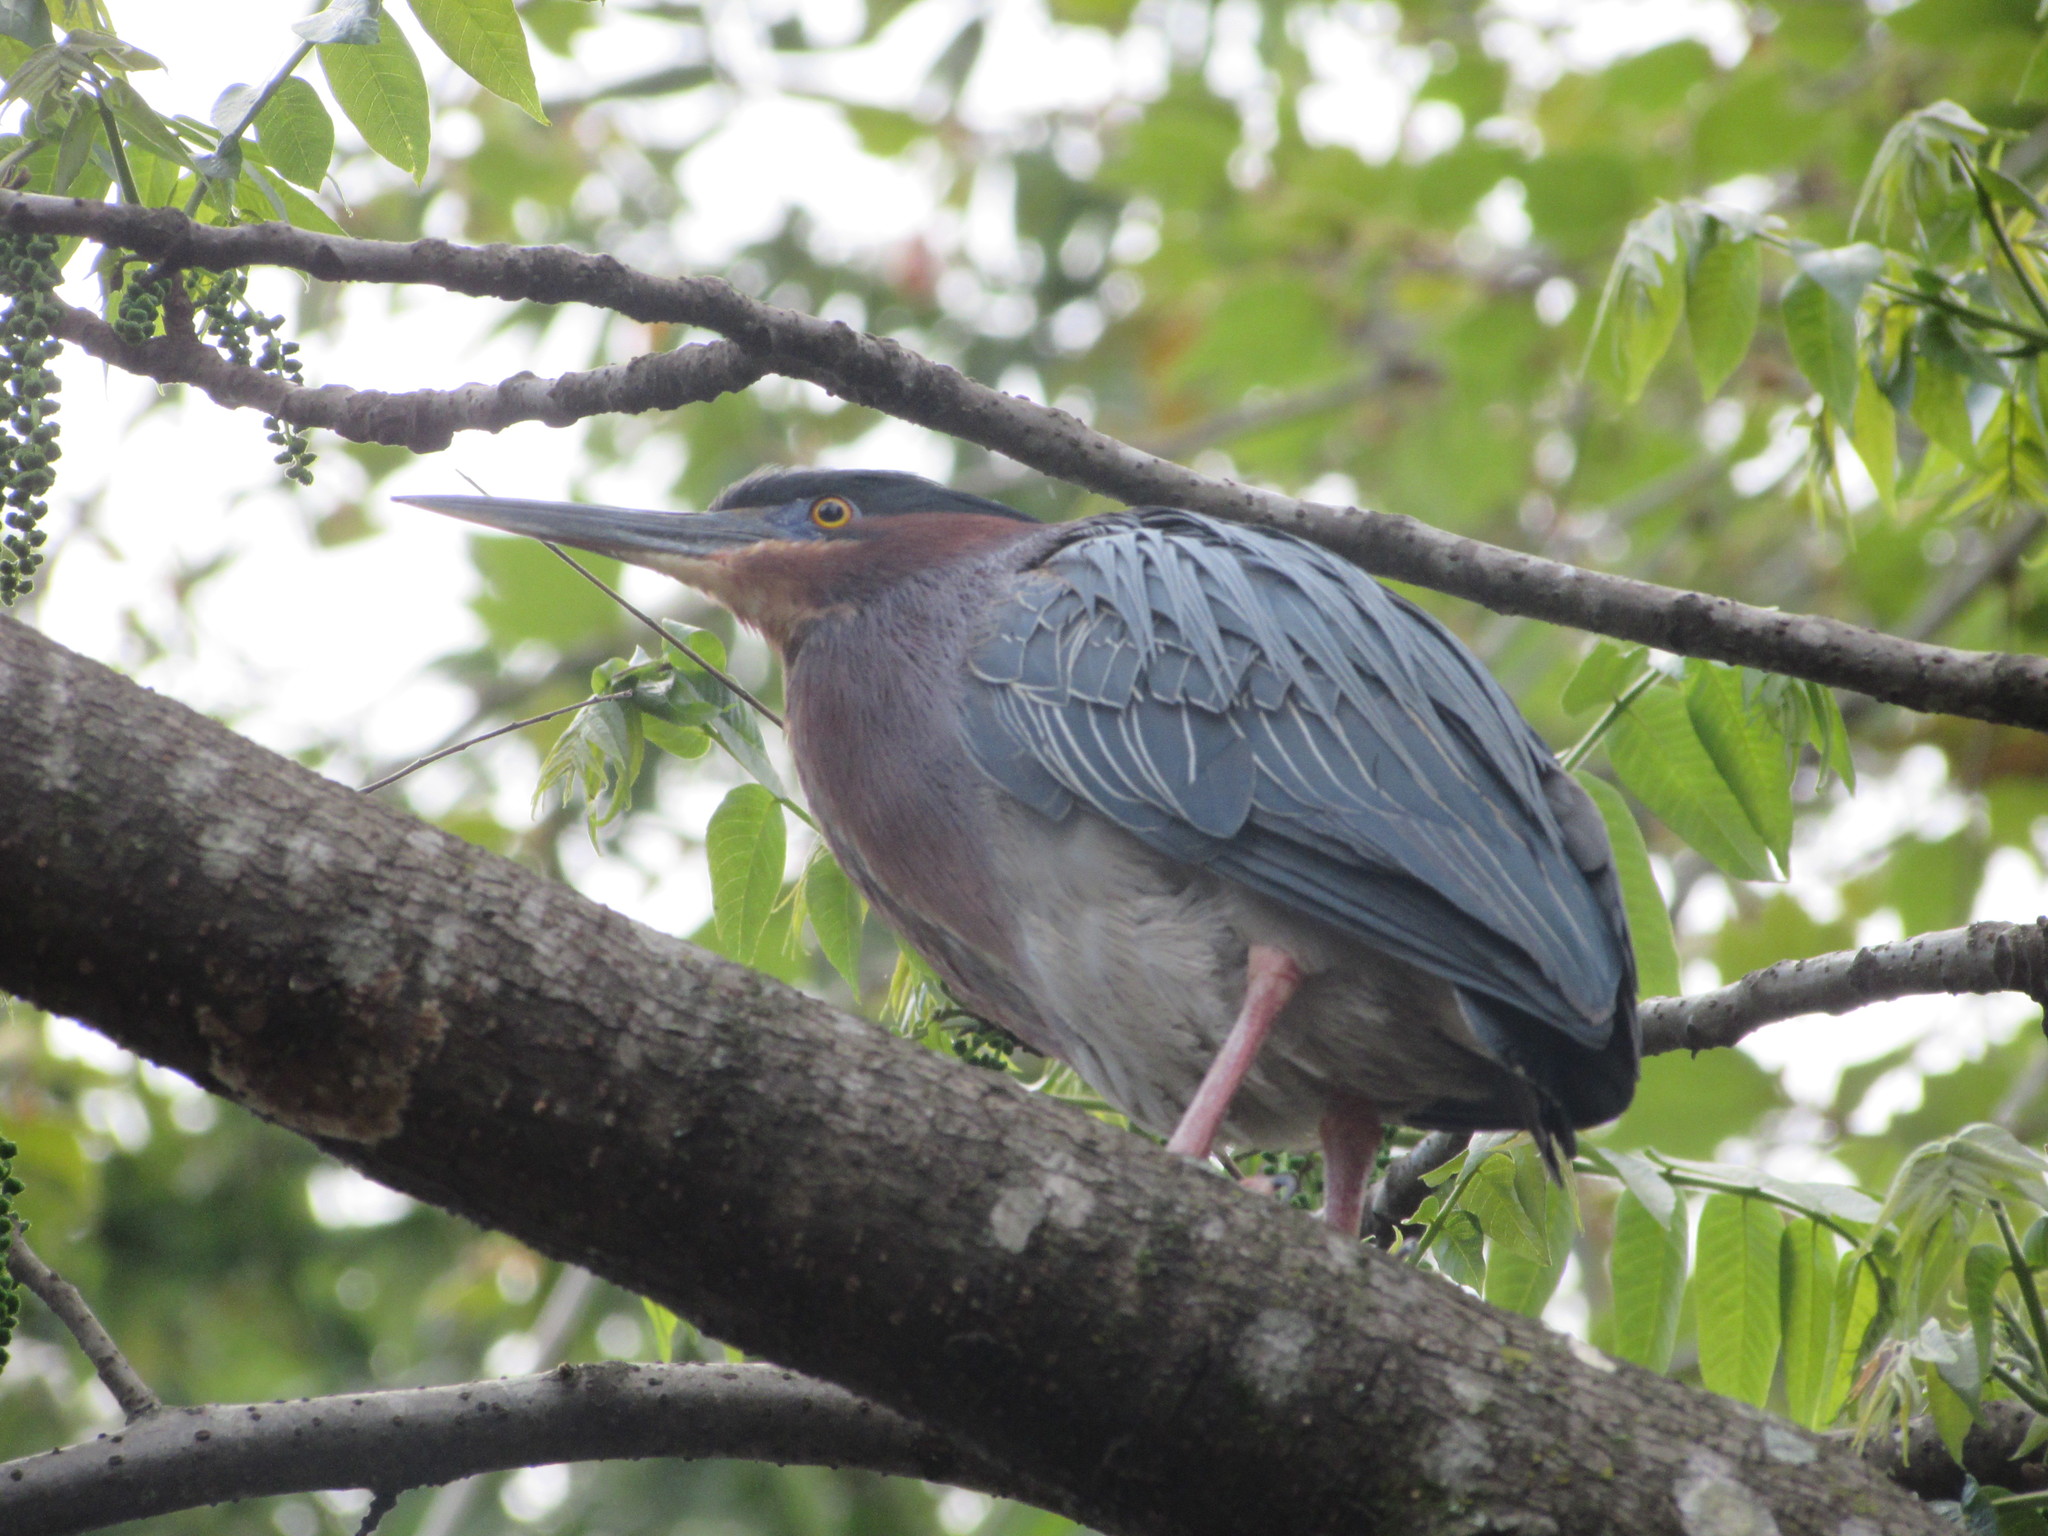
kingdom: Animalia
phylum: Chordata
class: Aves
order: Pelecaniformes
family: Ardeidae
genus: Butorides
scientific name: Butorides virescens
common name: Green heron
